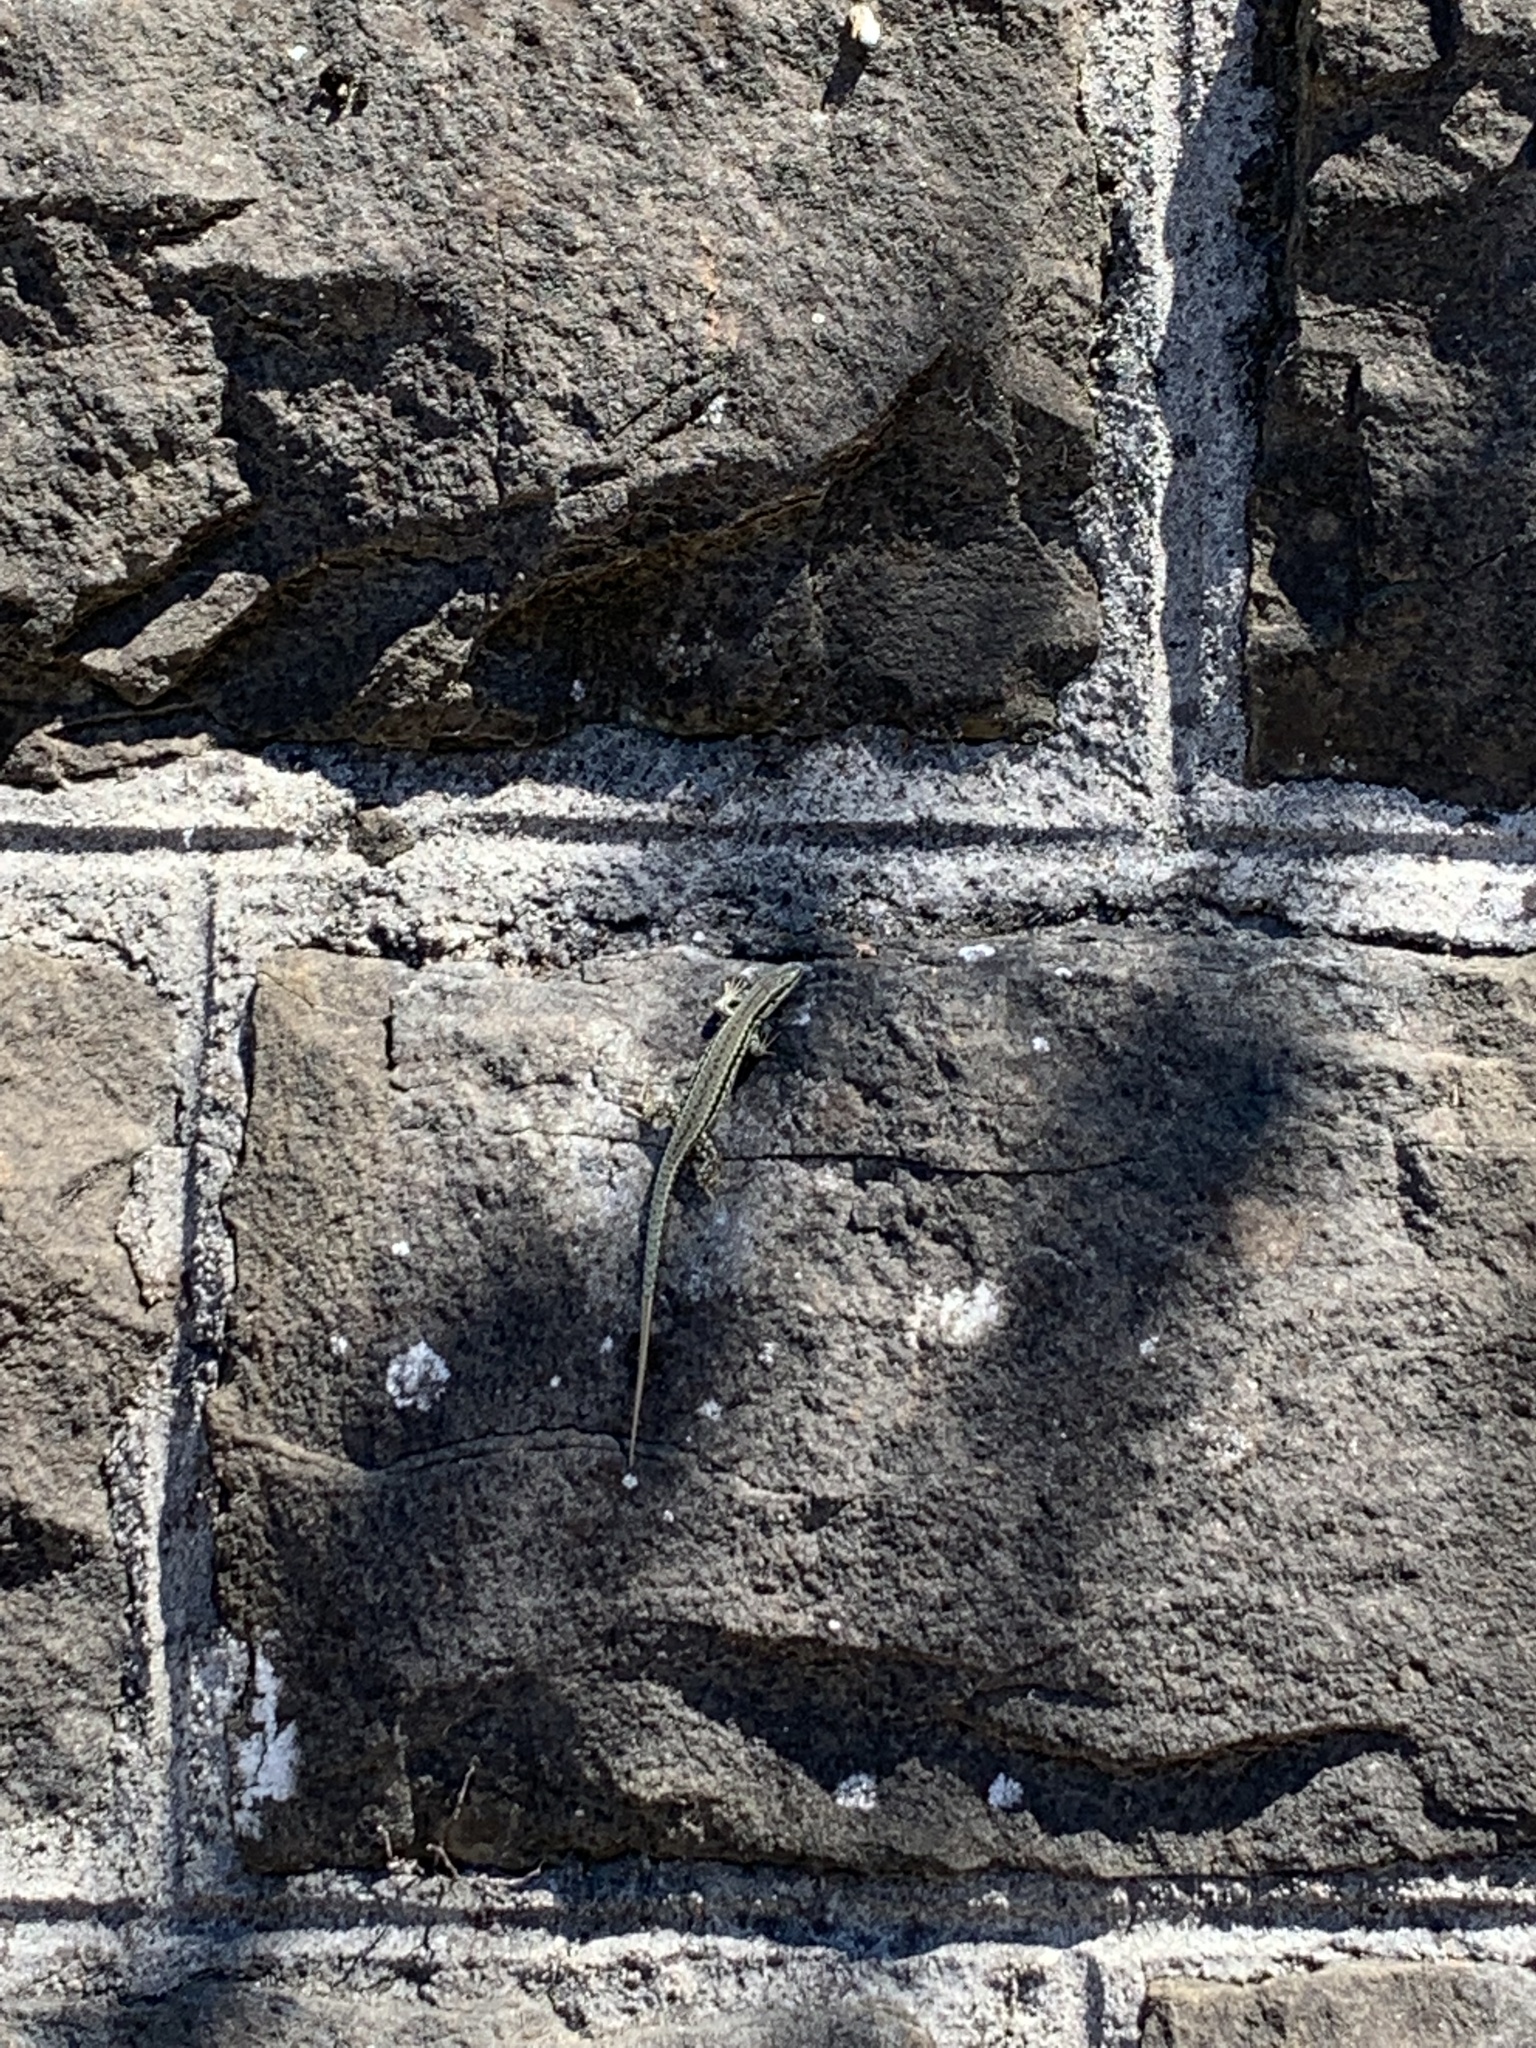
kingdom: Animalia
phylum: Chordata
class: Squamata
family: Lacertidae
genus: Podarcis
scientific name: Podarcis muralis
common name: Common wall lizard
